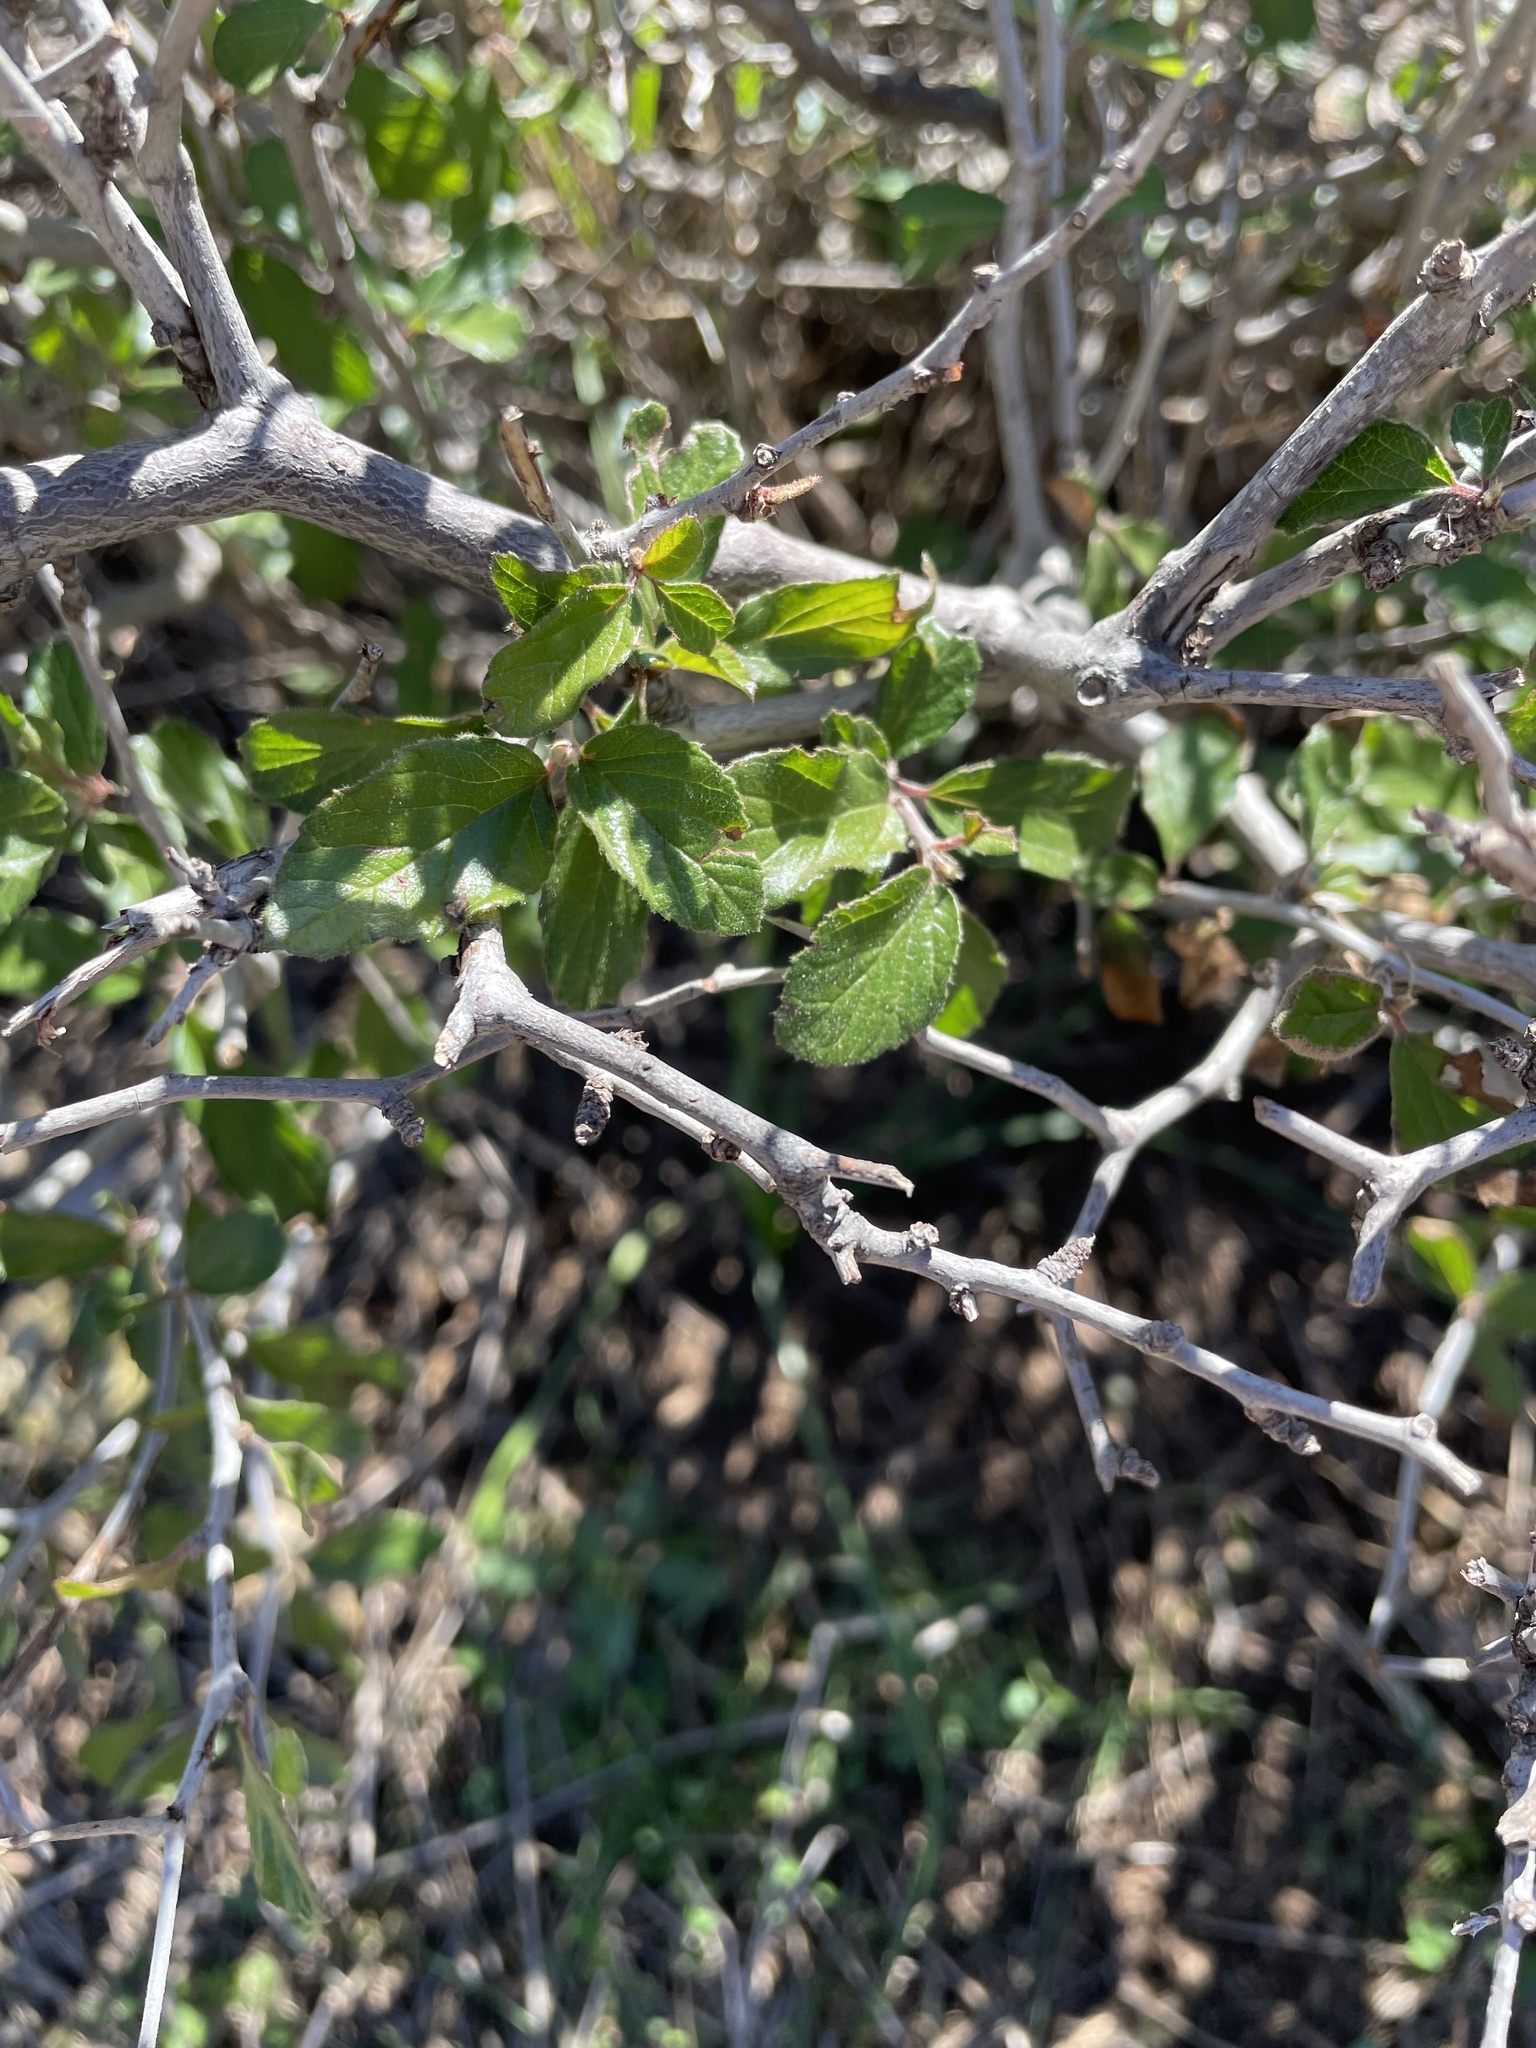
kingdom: Plantae
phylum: Tracheophyta
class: Magnoliopsida
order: Rosales
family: Rhamnaceae
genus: Colubrina
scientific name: Colubrina texensis
